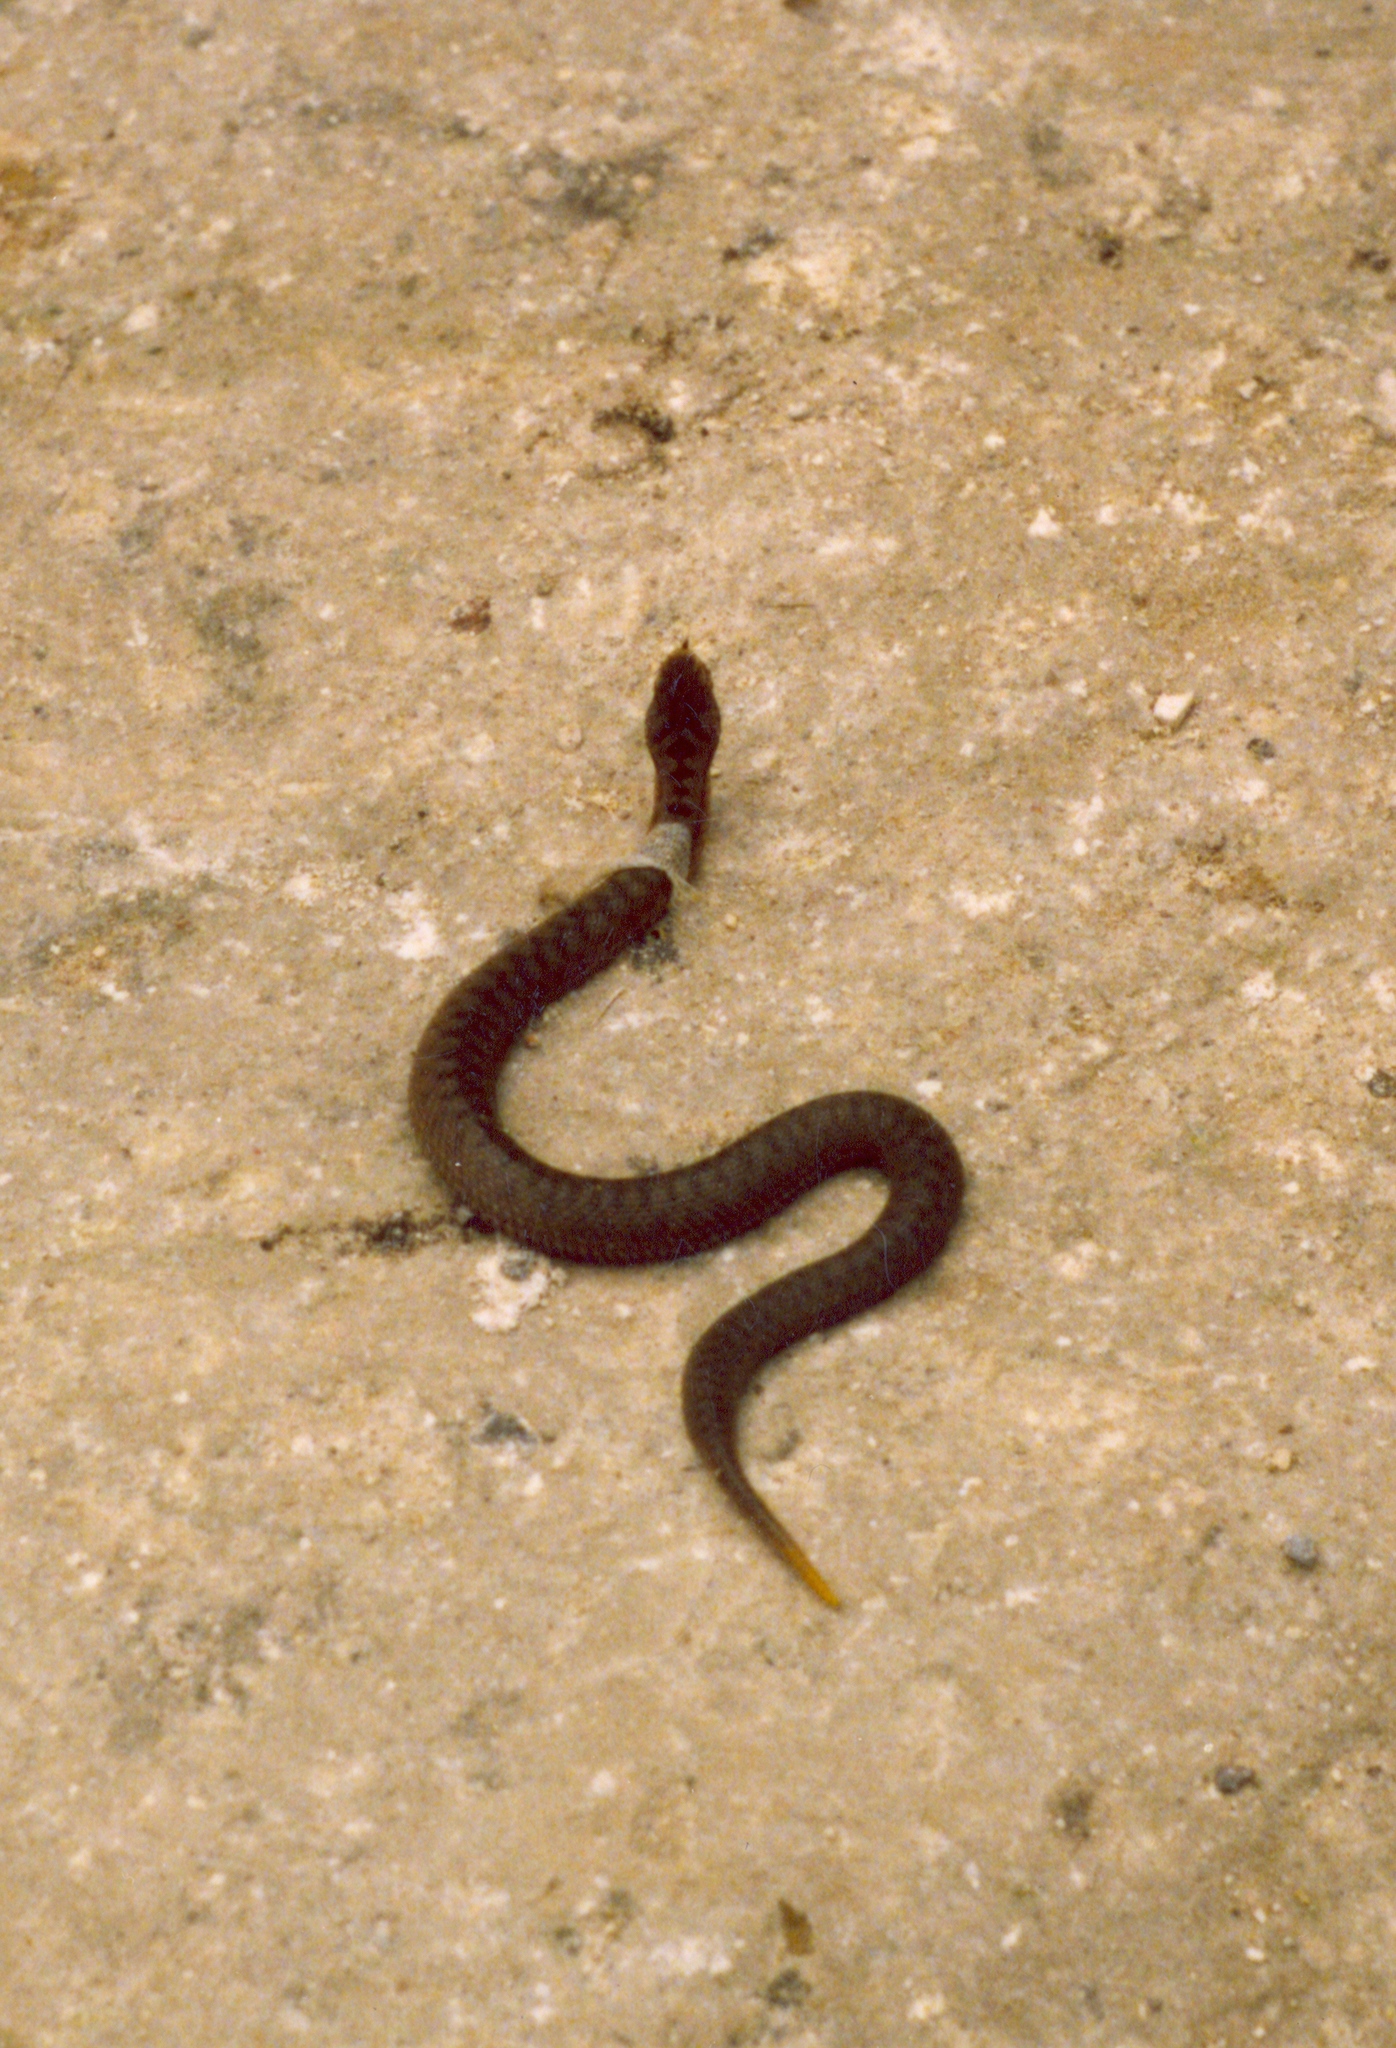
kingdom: Animalia
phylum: Chordata
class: Squamata
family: Viperidae
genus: Vipera
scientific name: Vipera nikolskii
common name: Adder
